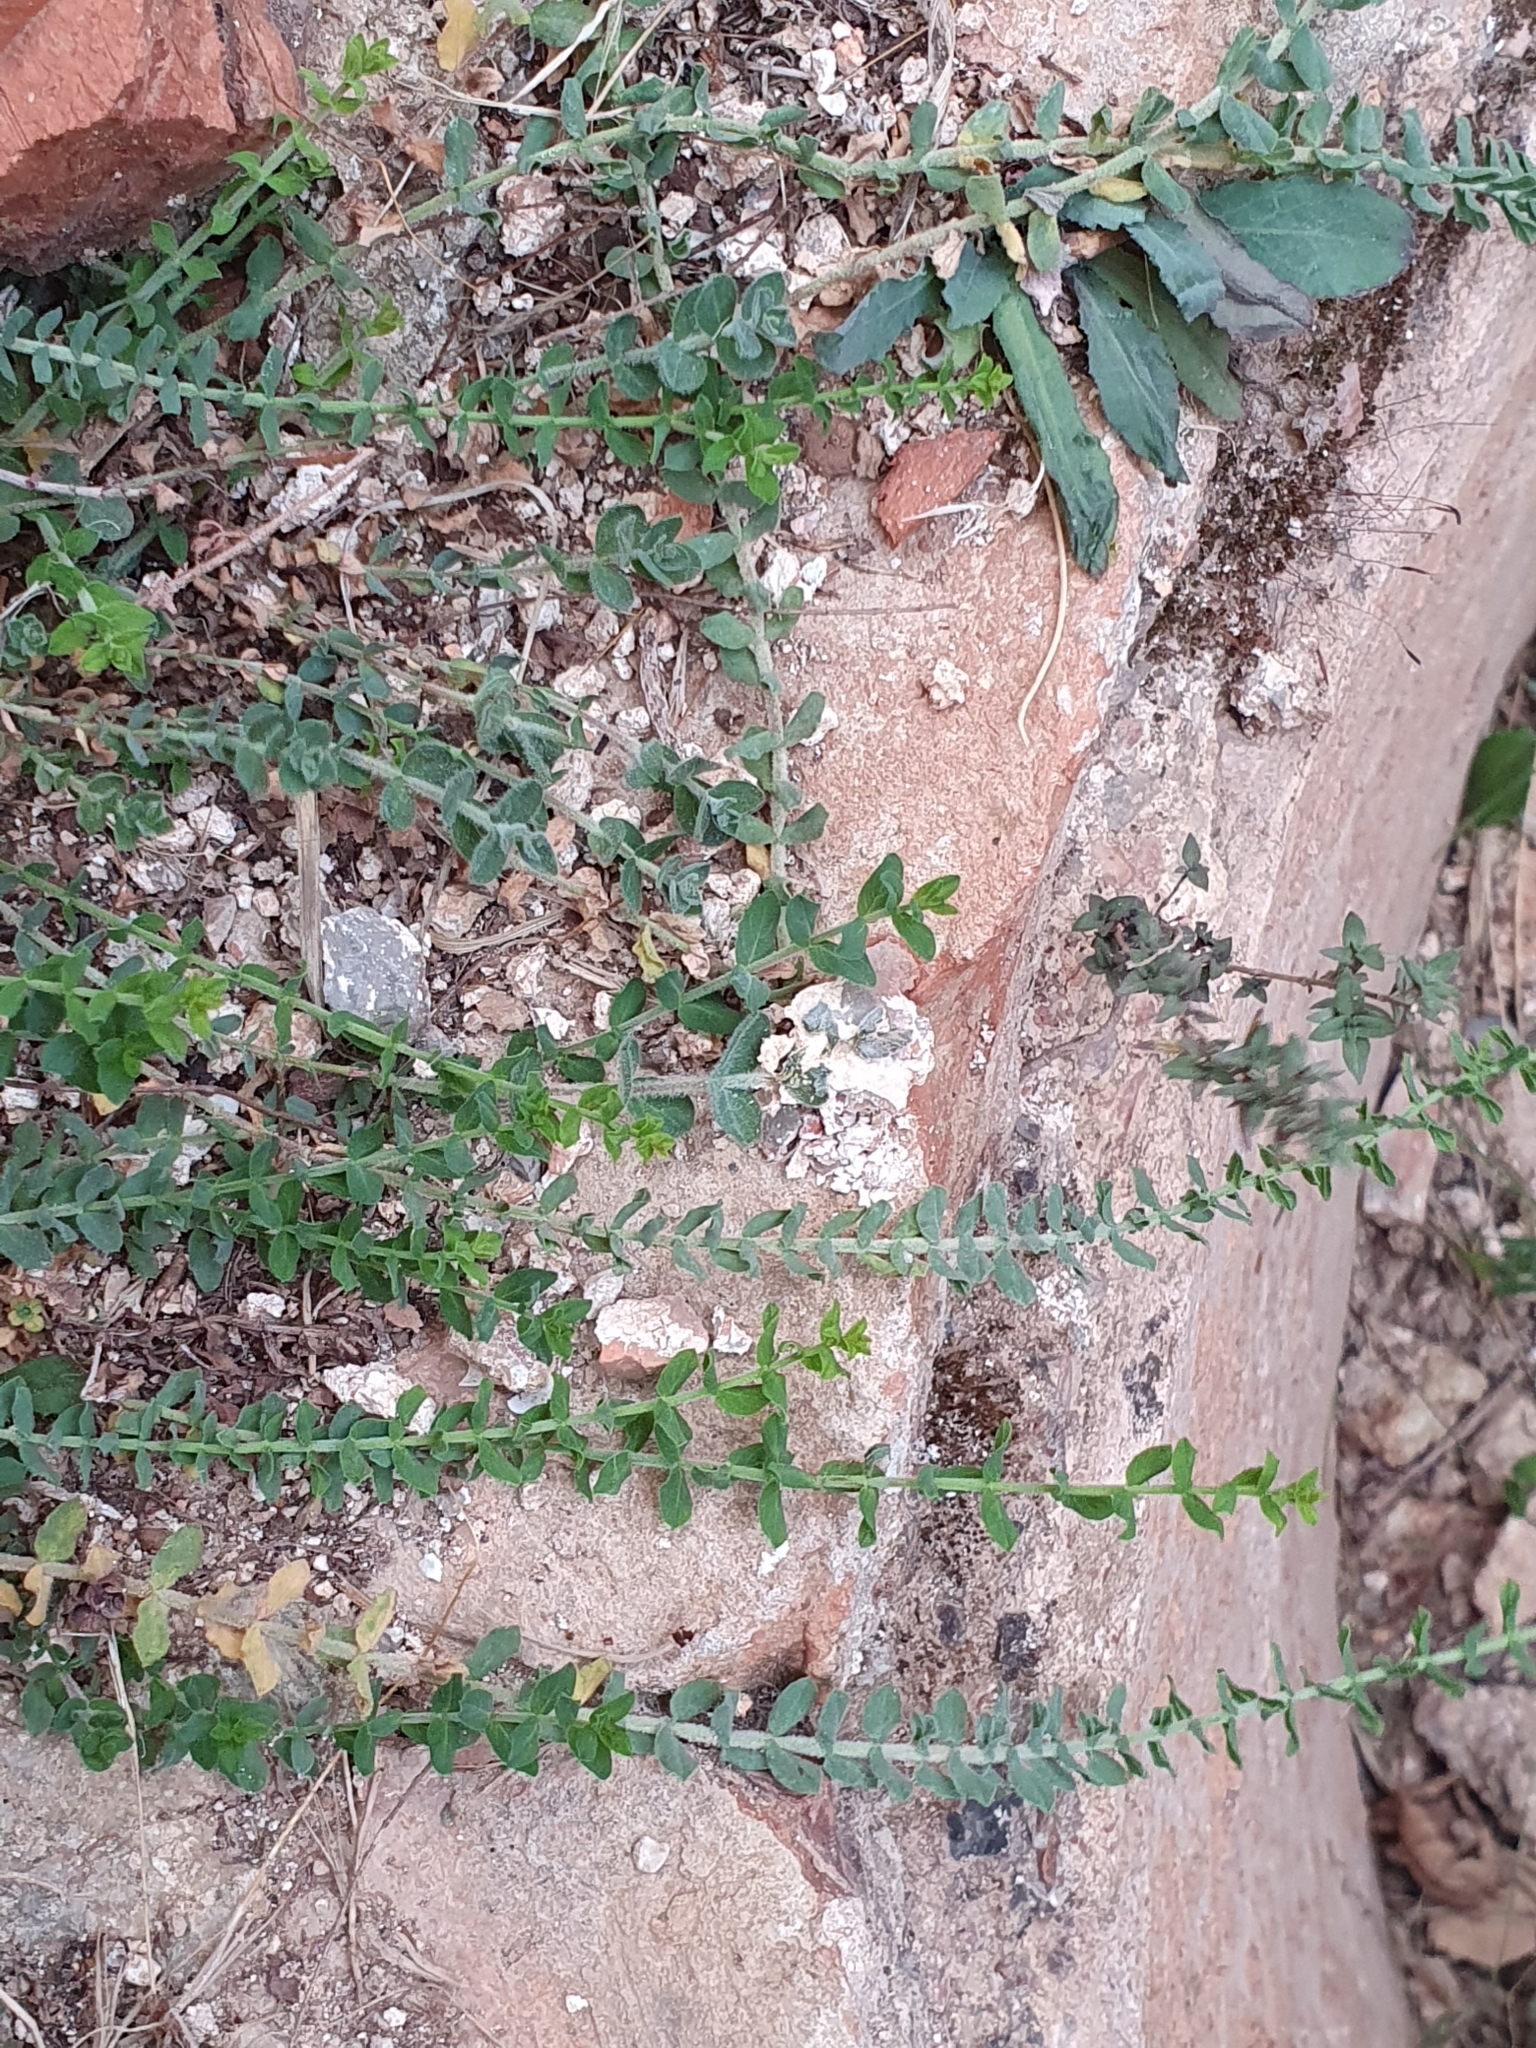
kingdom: Plantae
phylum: Tracheophyta
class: Magnoliopsida
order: Malpighiales
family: Hypericaceae
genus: Hypericum
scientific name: Hypericum tomentosum
